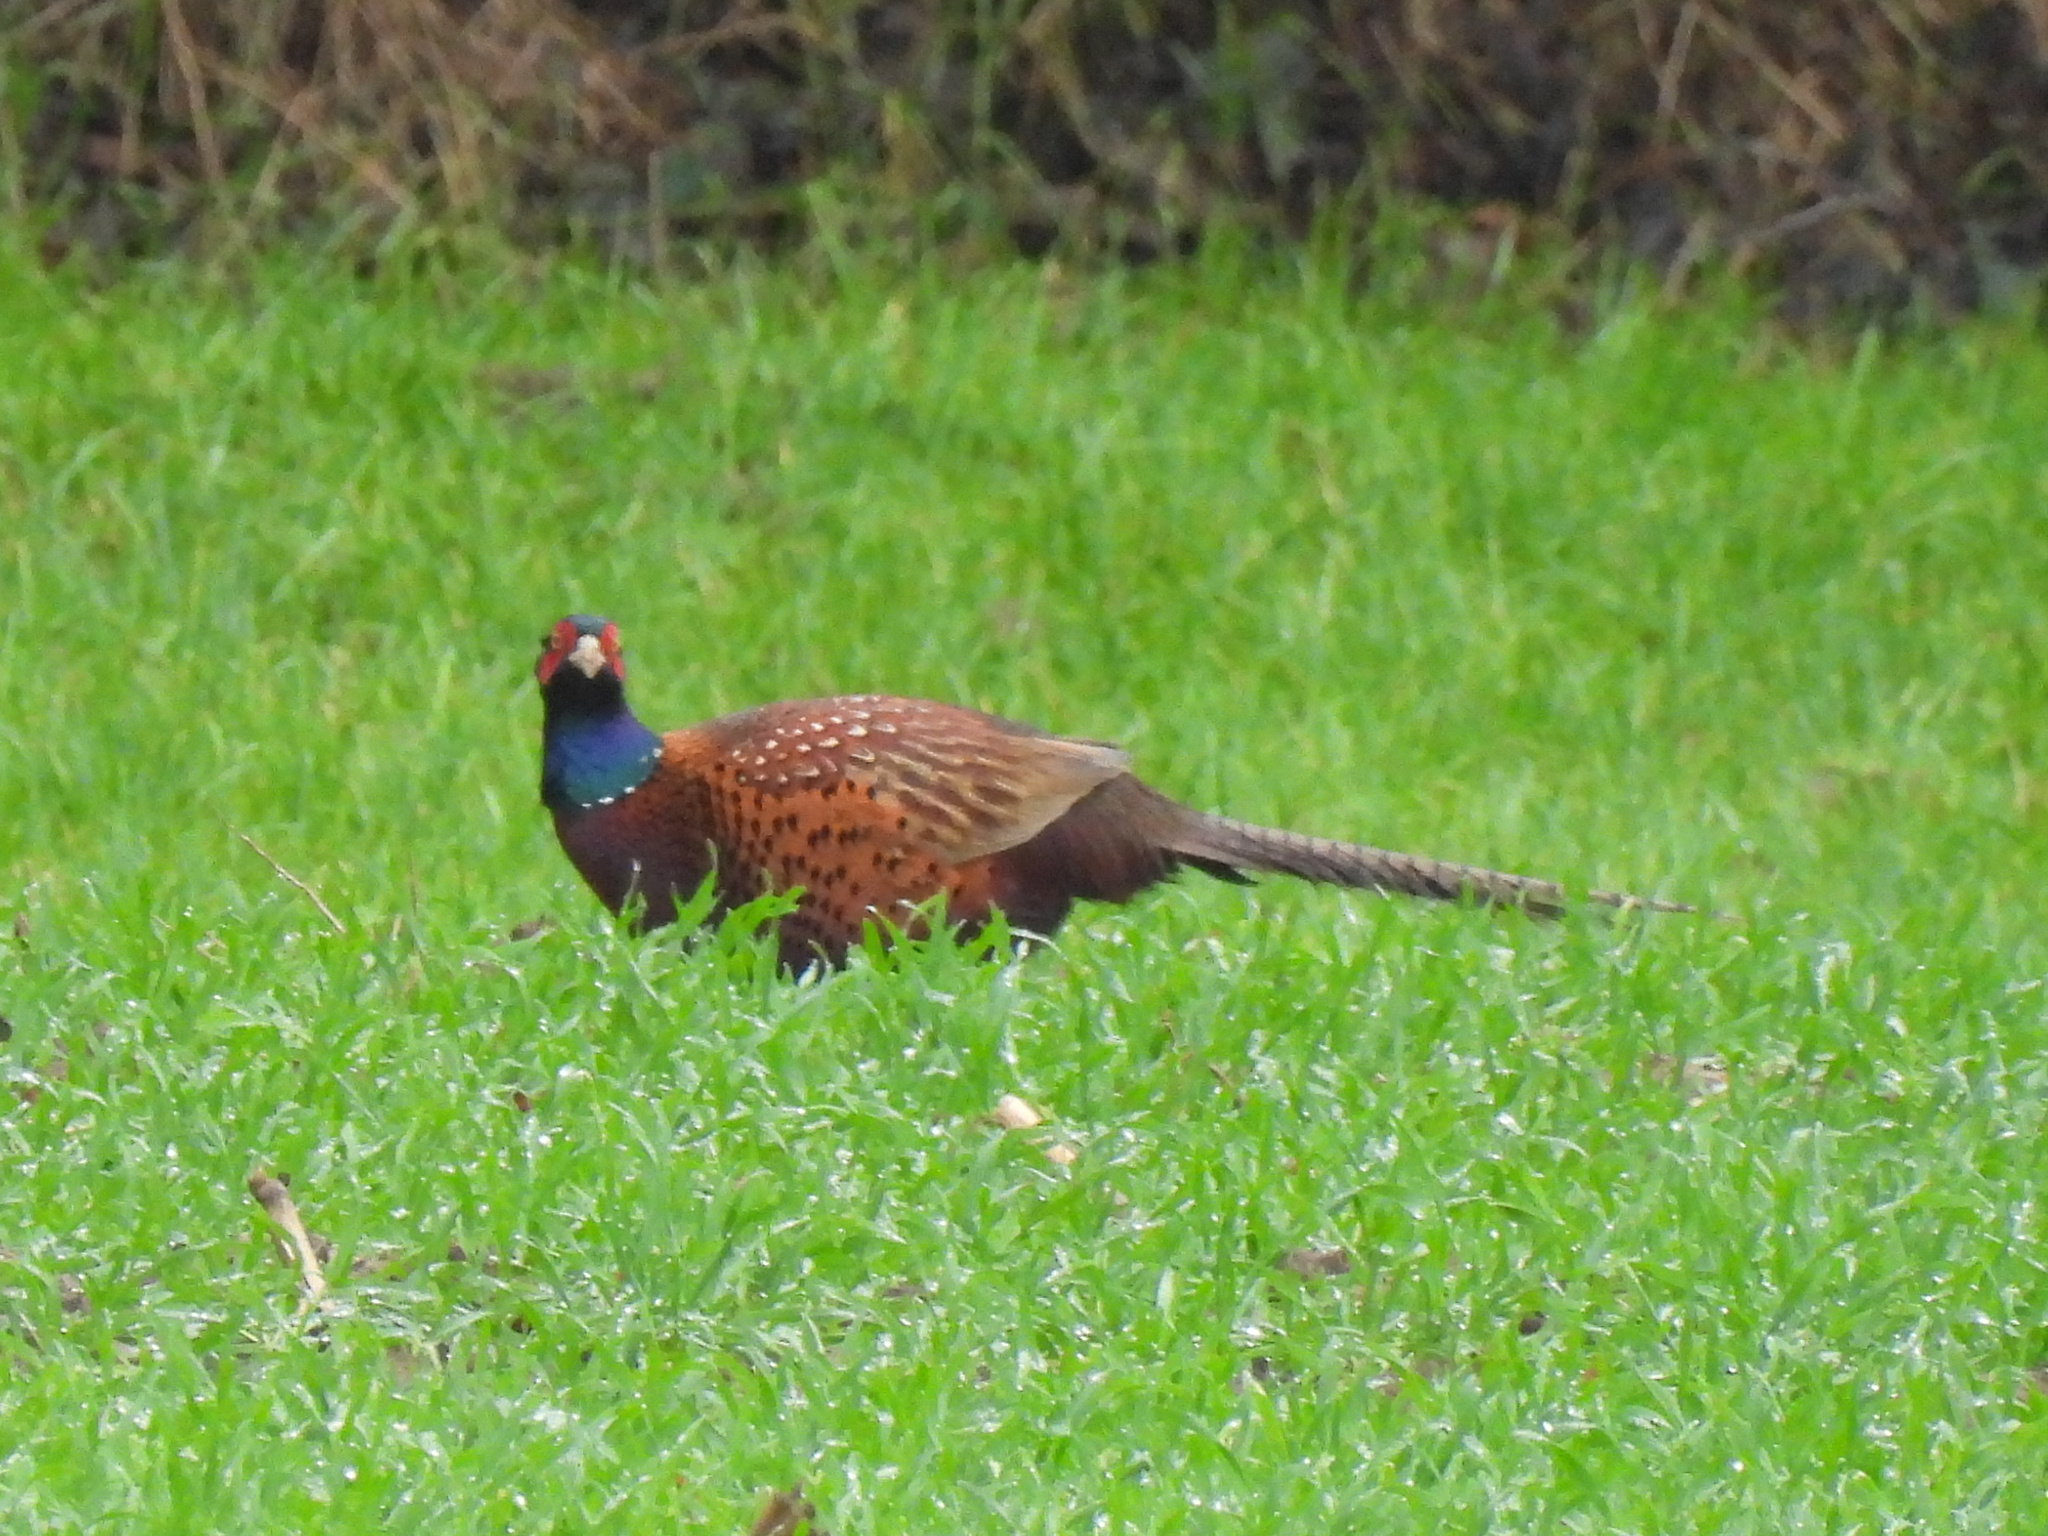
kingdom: Animalia
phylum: Chordata
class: Aves
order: Galliformes
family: Phasianidae
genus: Phasianus
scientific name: Phasianus colchicus
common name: Common pheasant
